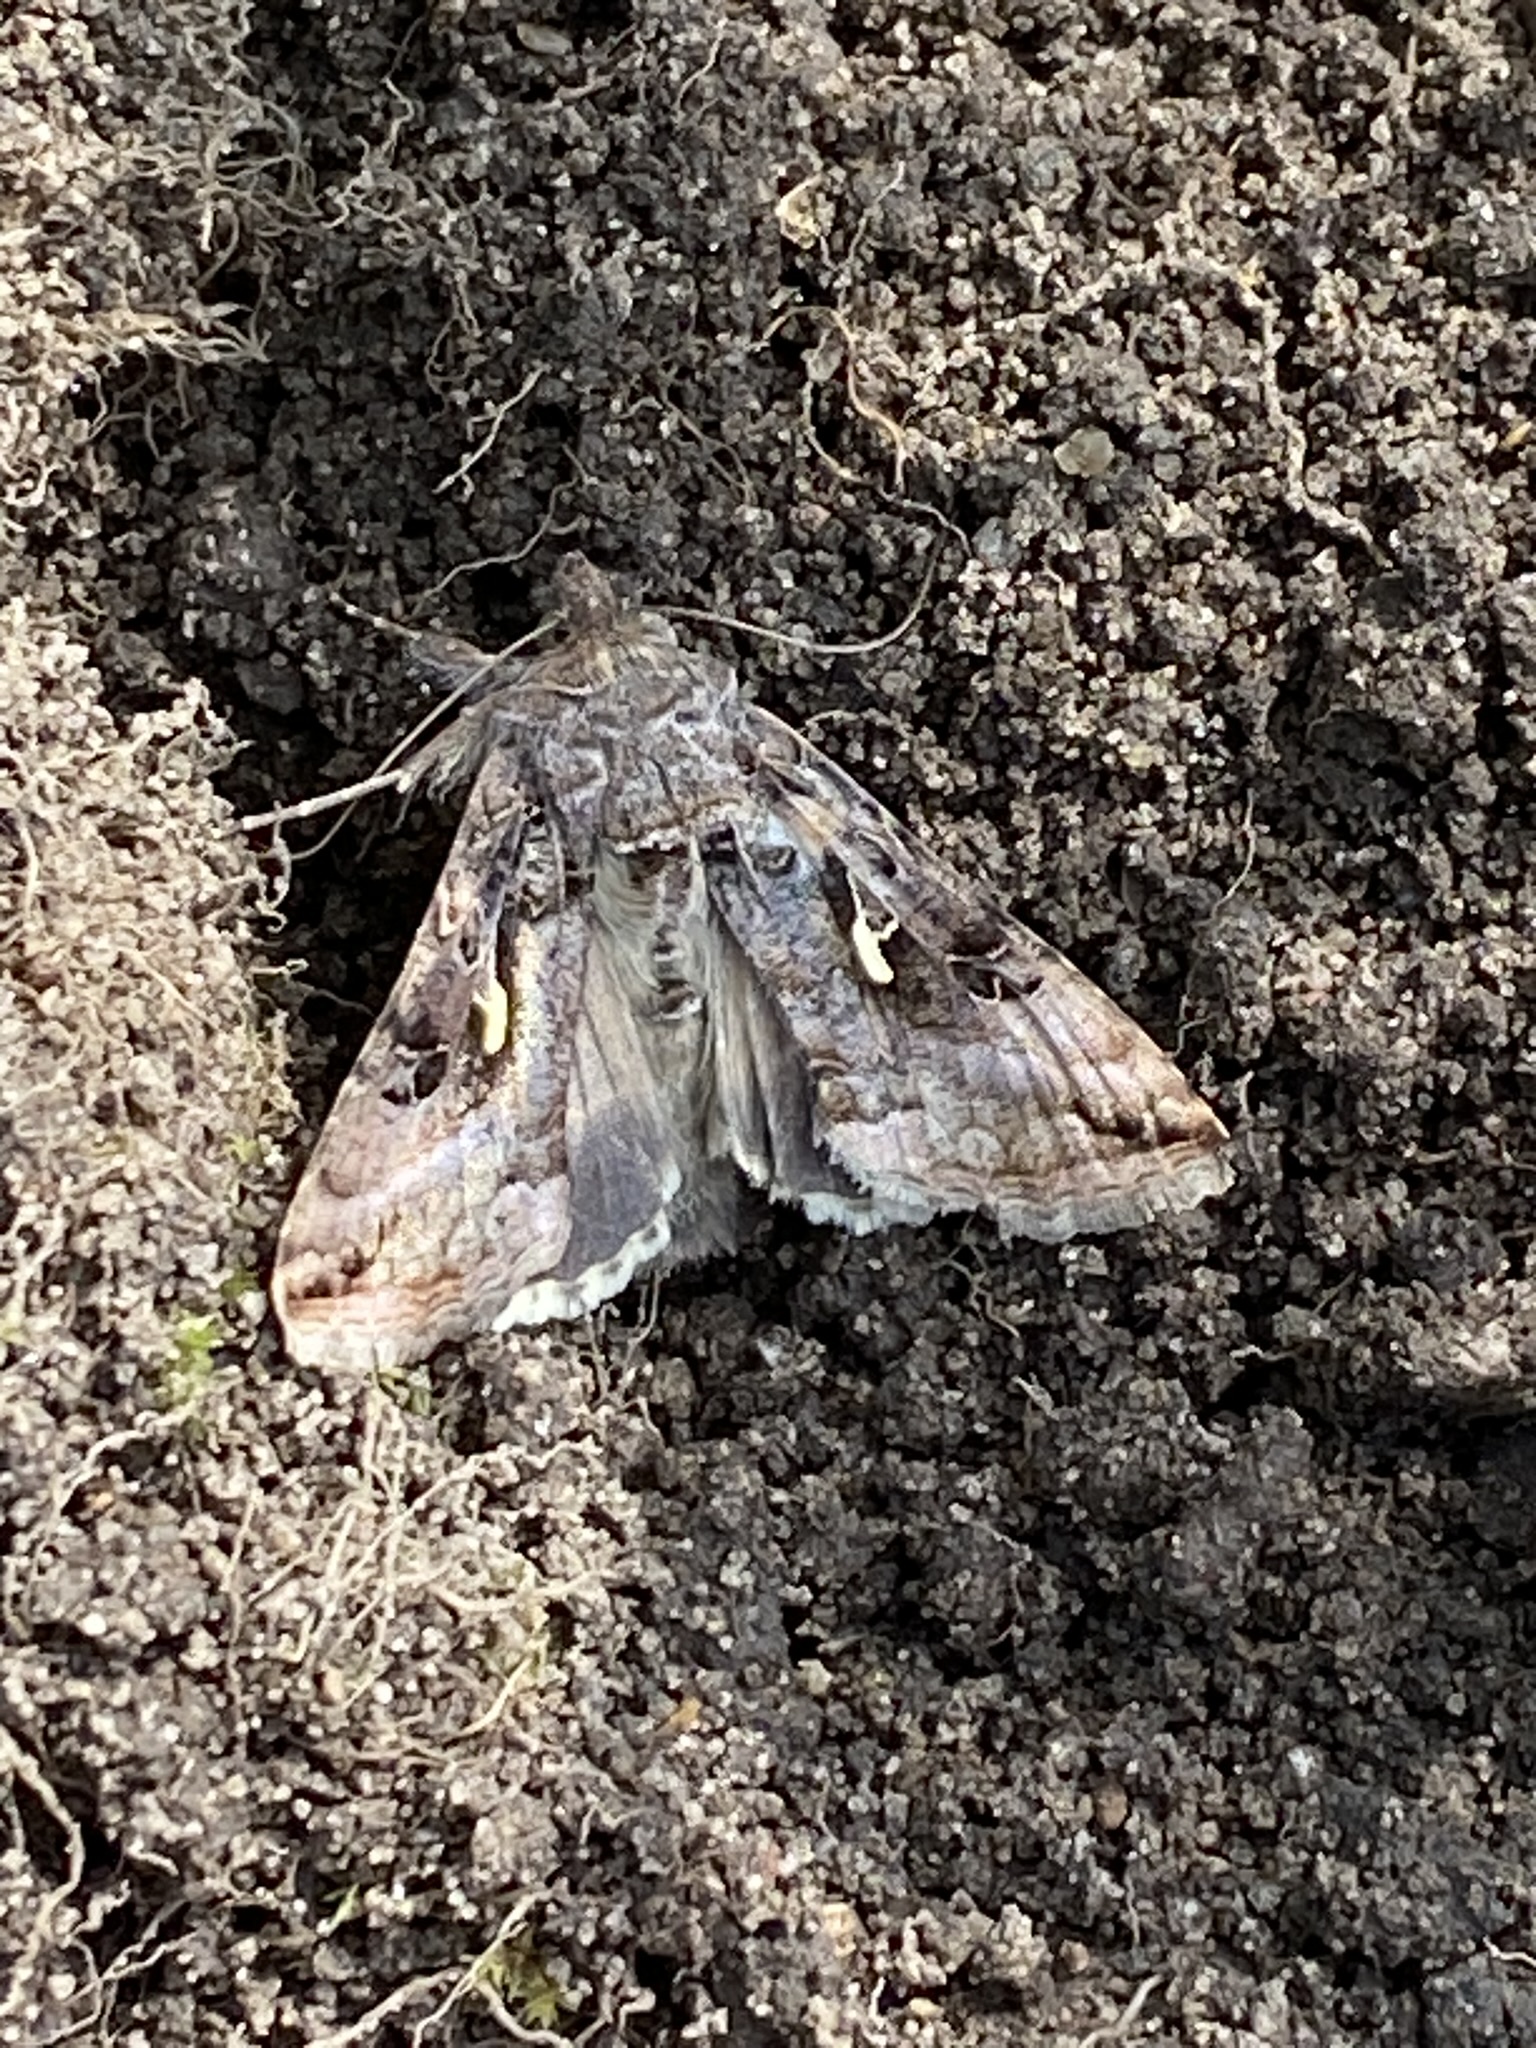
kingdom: Animalia
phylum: Arthropoda
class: Insecta
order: Lepidoptera
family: Noctuidae
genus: Autographa
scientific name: Autographa gamma
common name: Silver y
